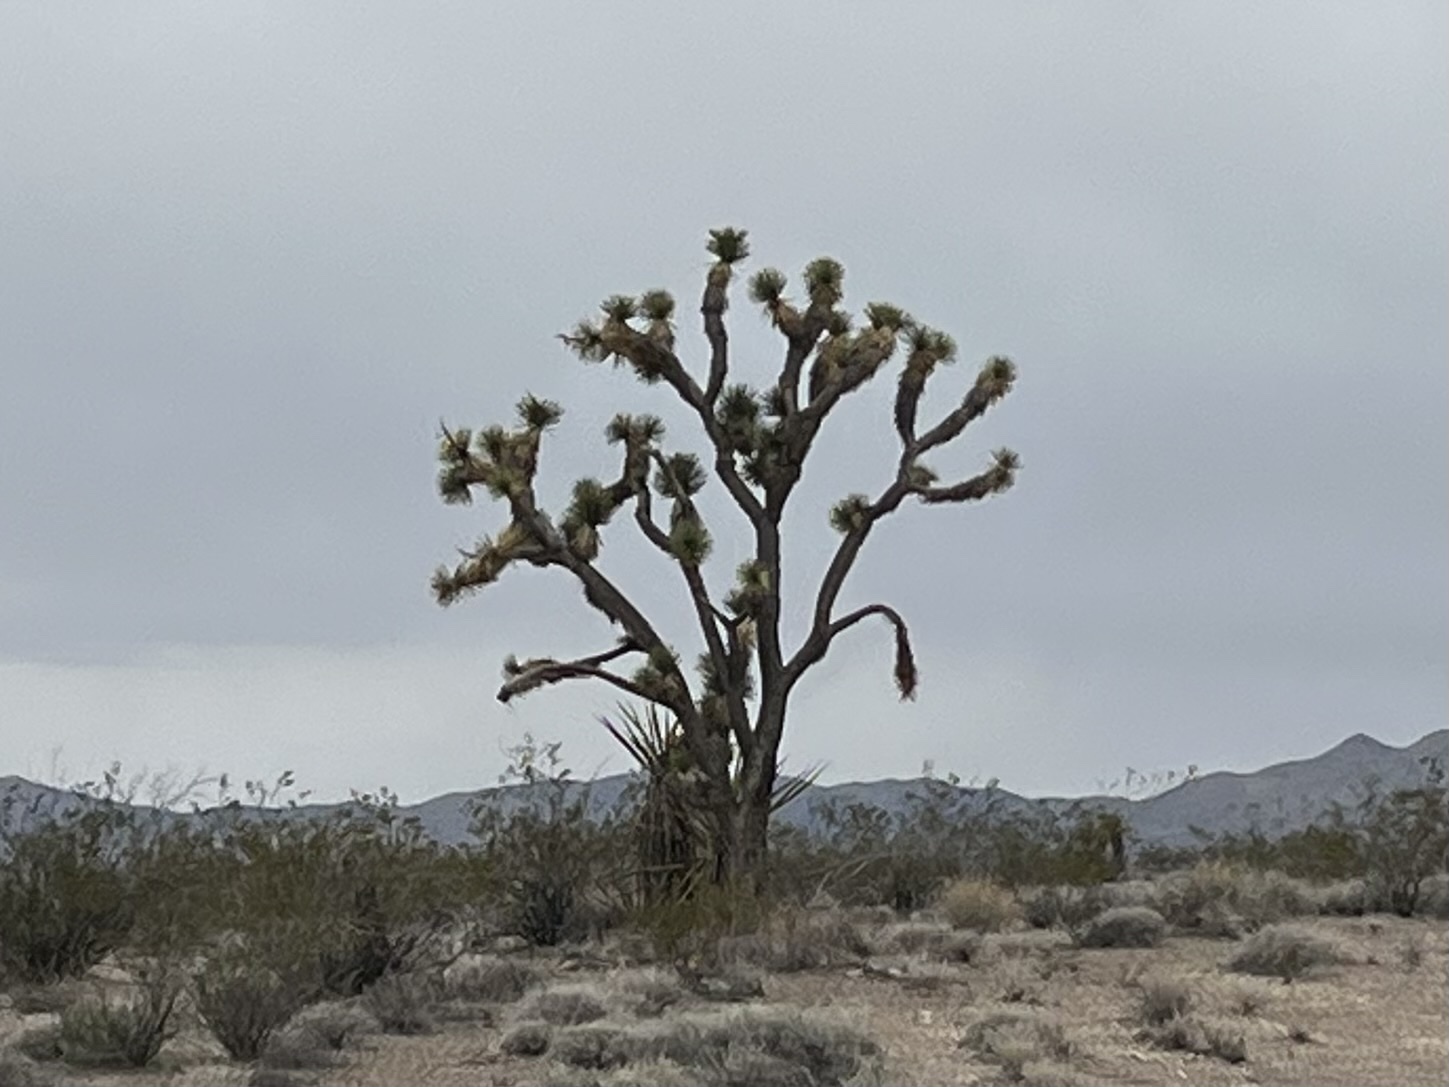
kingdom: Plantae
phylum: Tracheophyta
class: Liliopsida
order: Asparagales
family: Asparagaceae
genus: Yucca
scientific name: Yucca brevifolia
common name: Joshua tree
